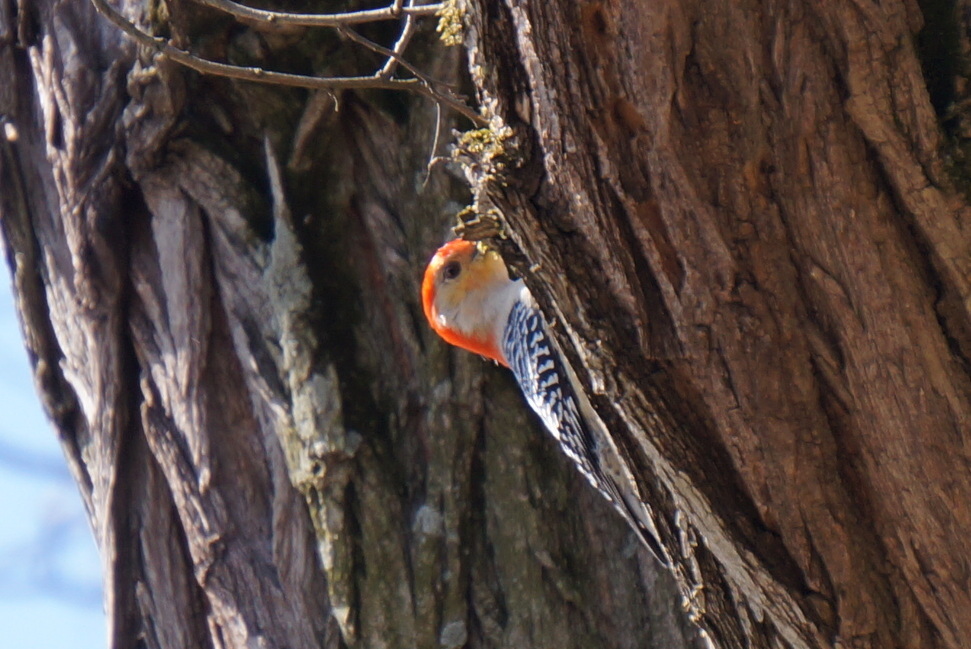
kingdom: Animalia
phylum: Chordata
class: Aves
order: Piciformes
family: Picidae
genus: Melanerpes
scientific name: Melanerpes carolinus
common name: Red-bellied woodpecker
